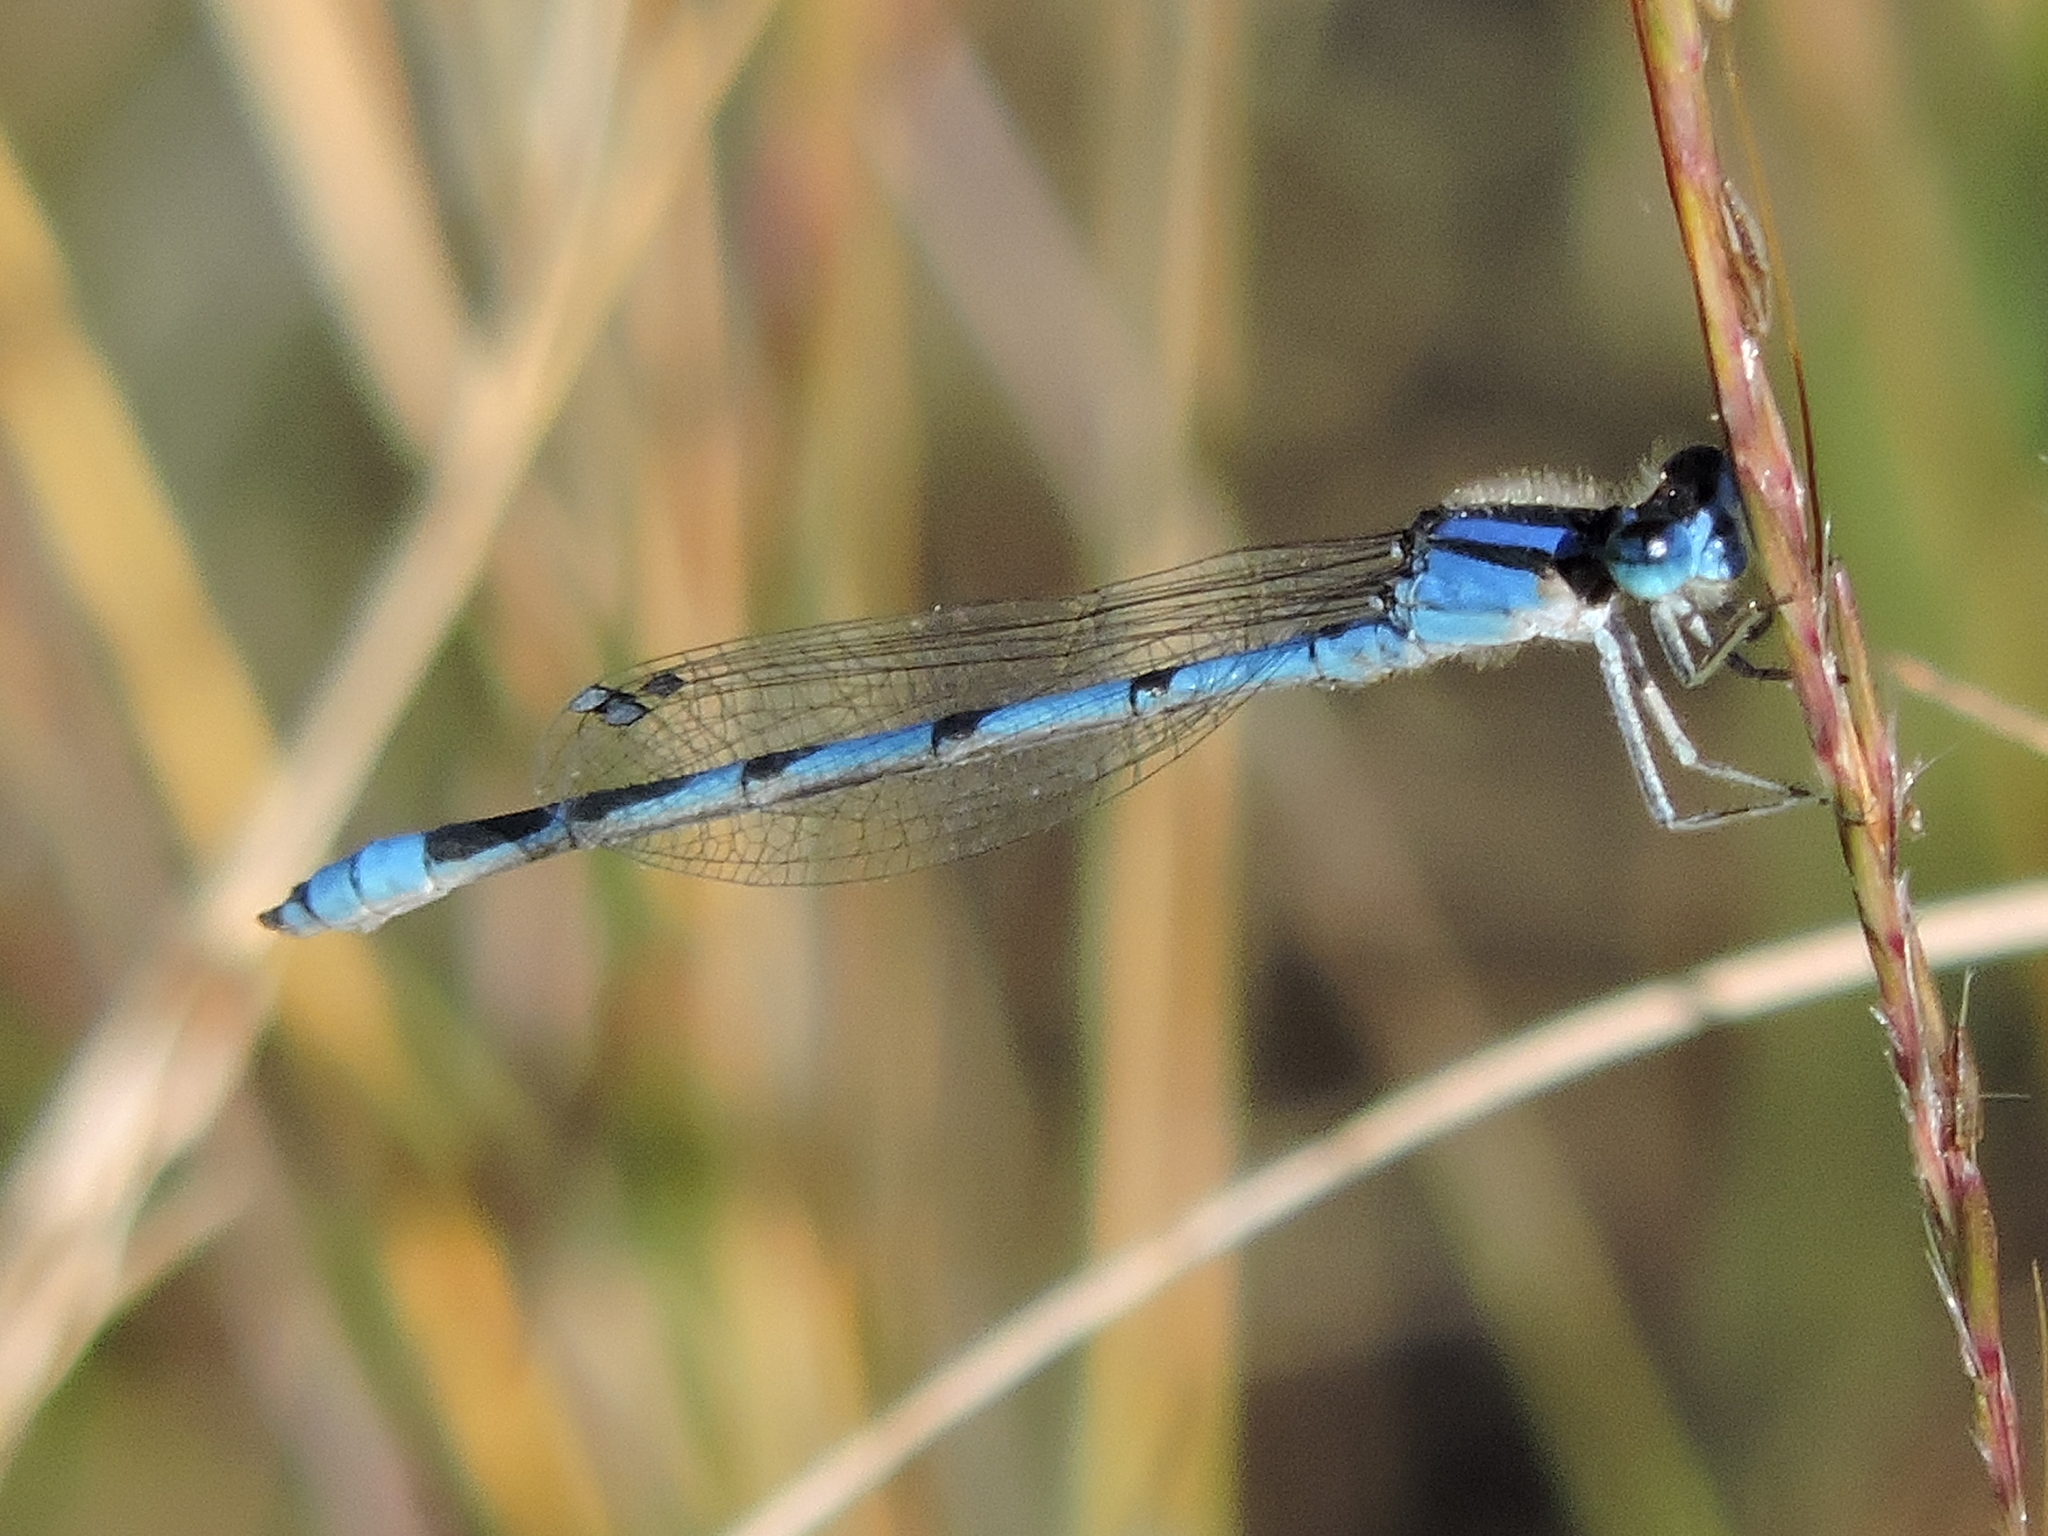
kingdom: Animalia
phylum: Arthropoda
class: Insecta
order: Odonata
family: Coenagrionidae
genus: Enallagma
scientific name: Enallagma civile
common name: Damselfly
